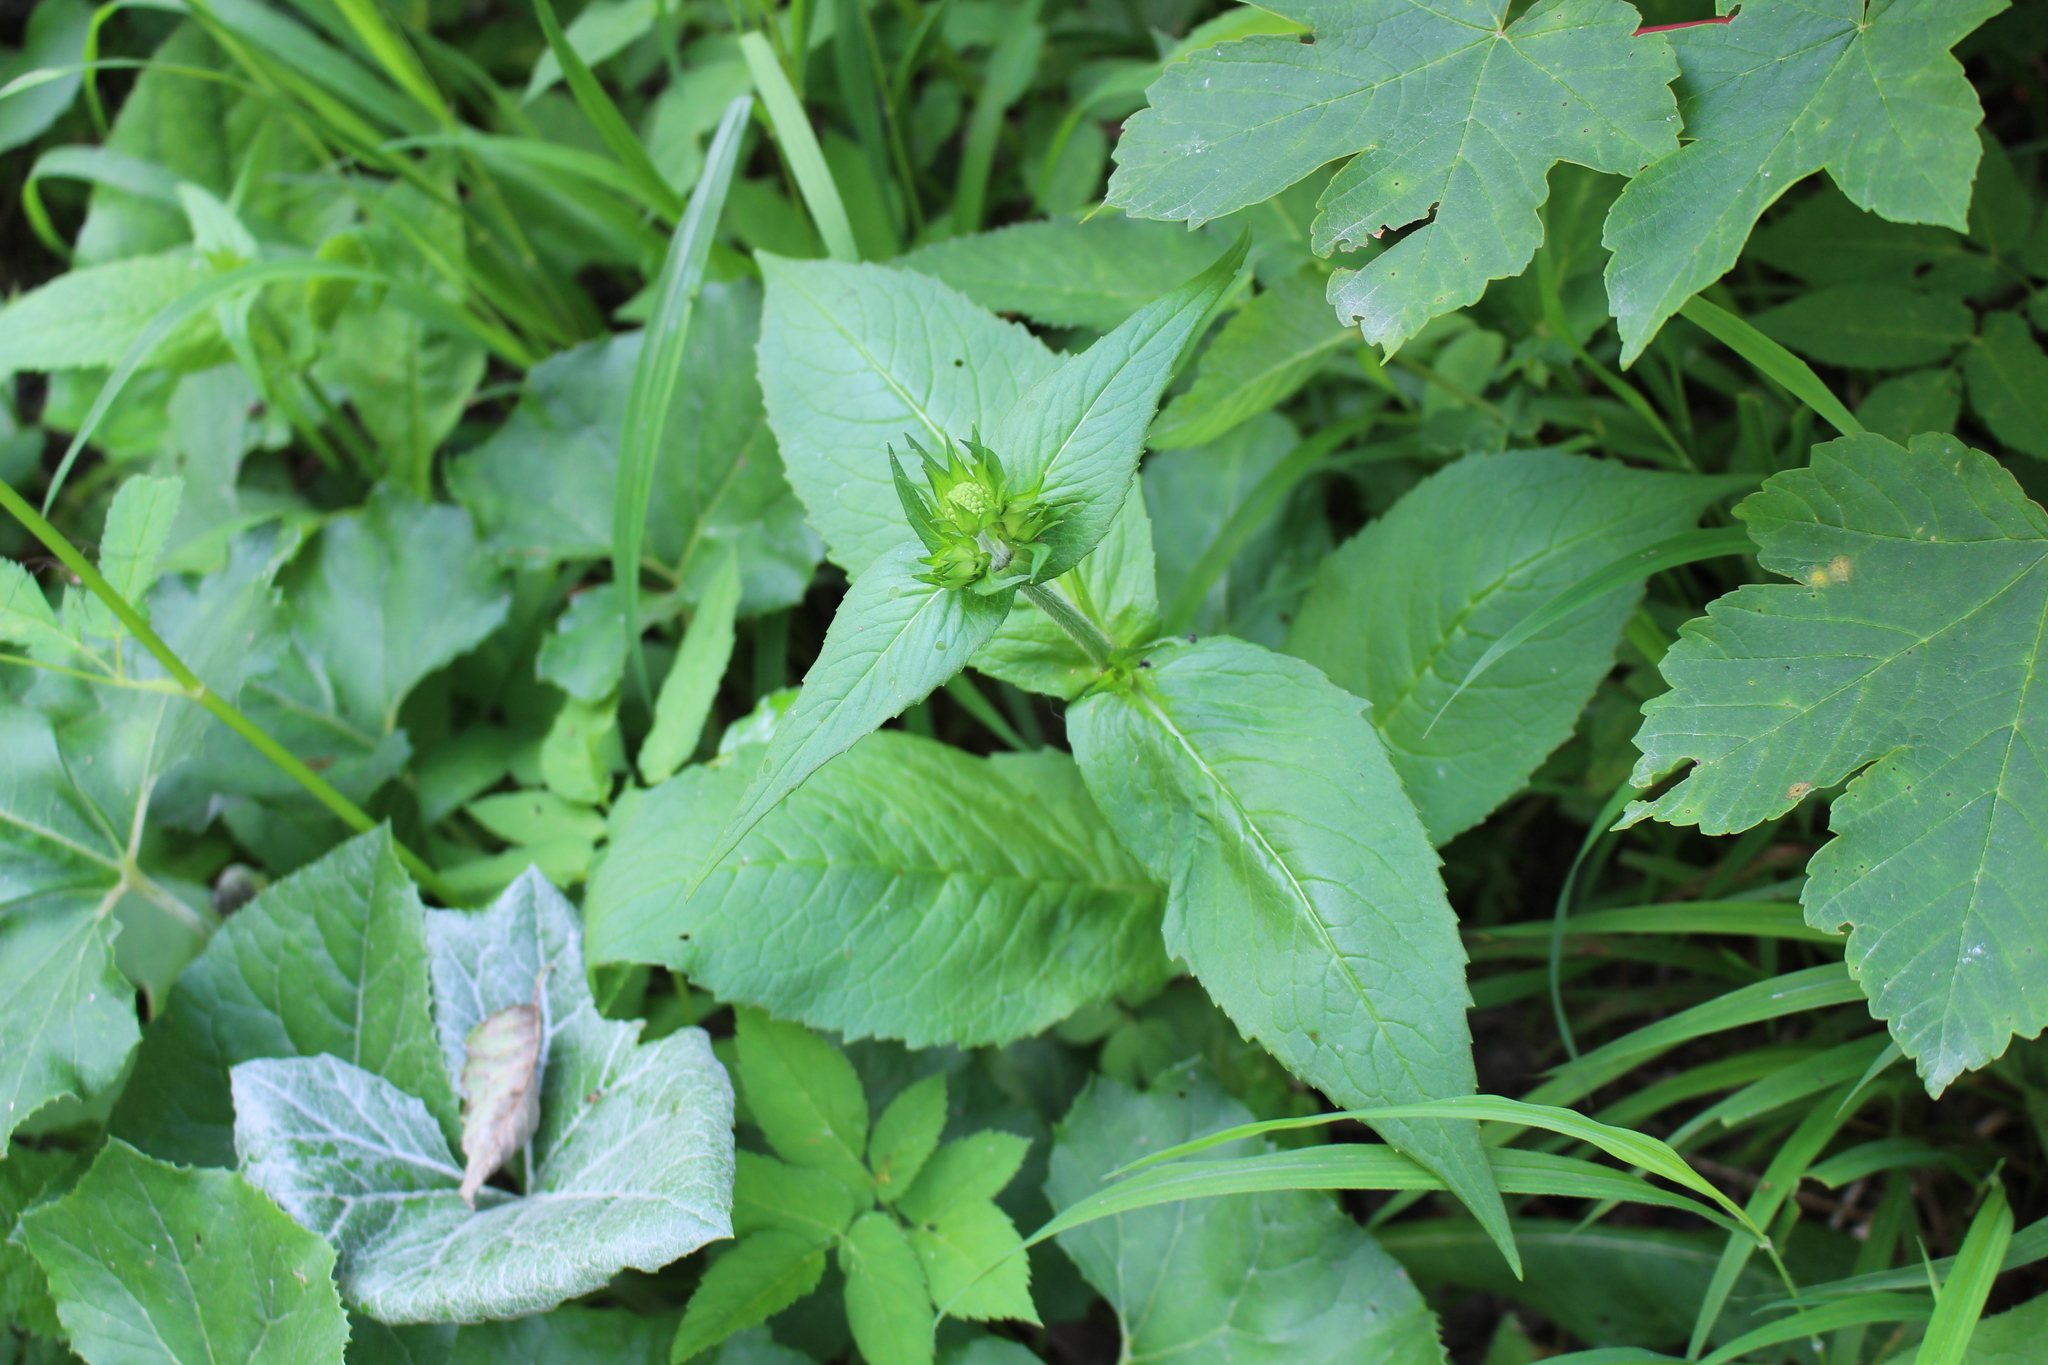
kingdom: Plantae
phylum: Tracheophyta
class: Magnoliopsida
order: Dipsacales
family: Caprifoliaceae
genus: Knautia
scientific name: Knautia dipsacifolia
